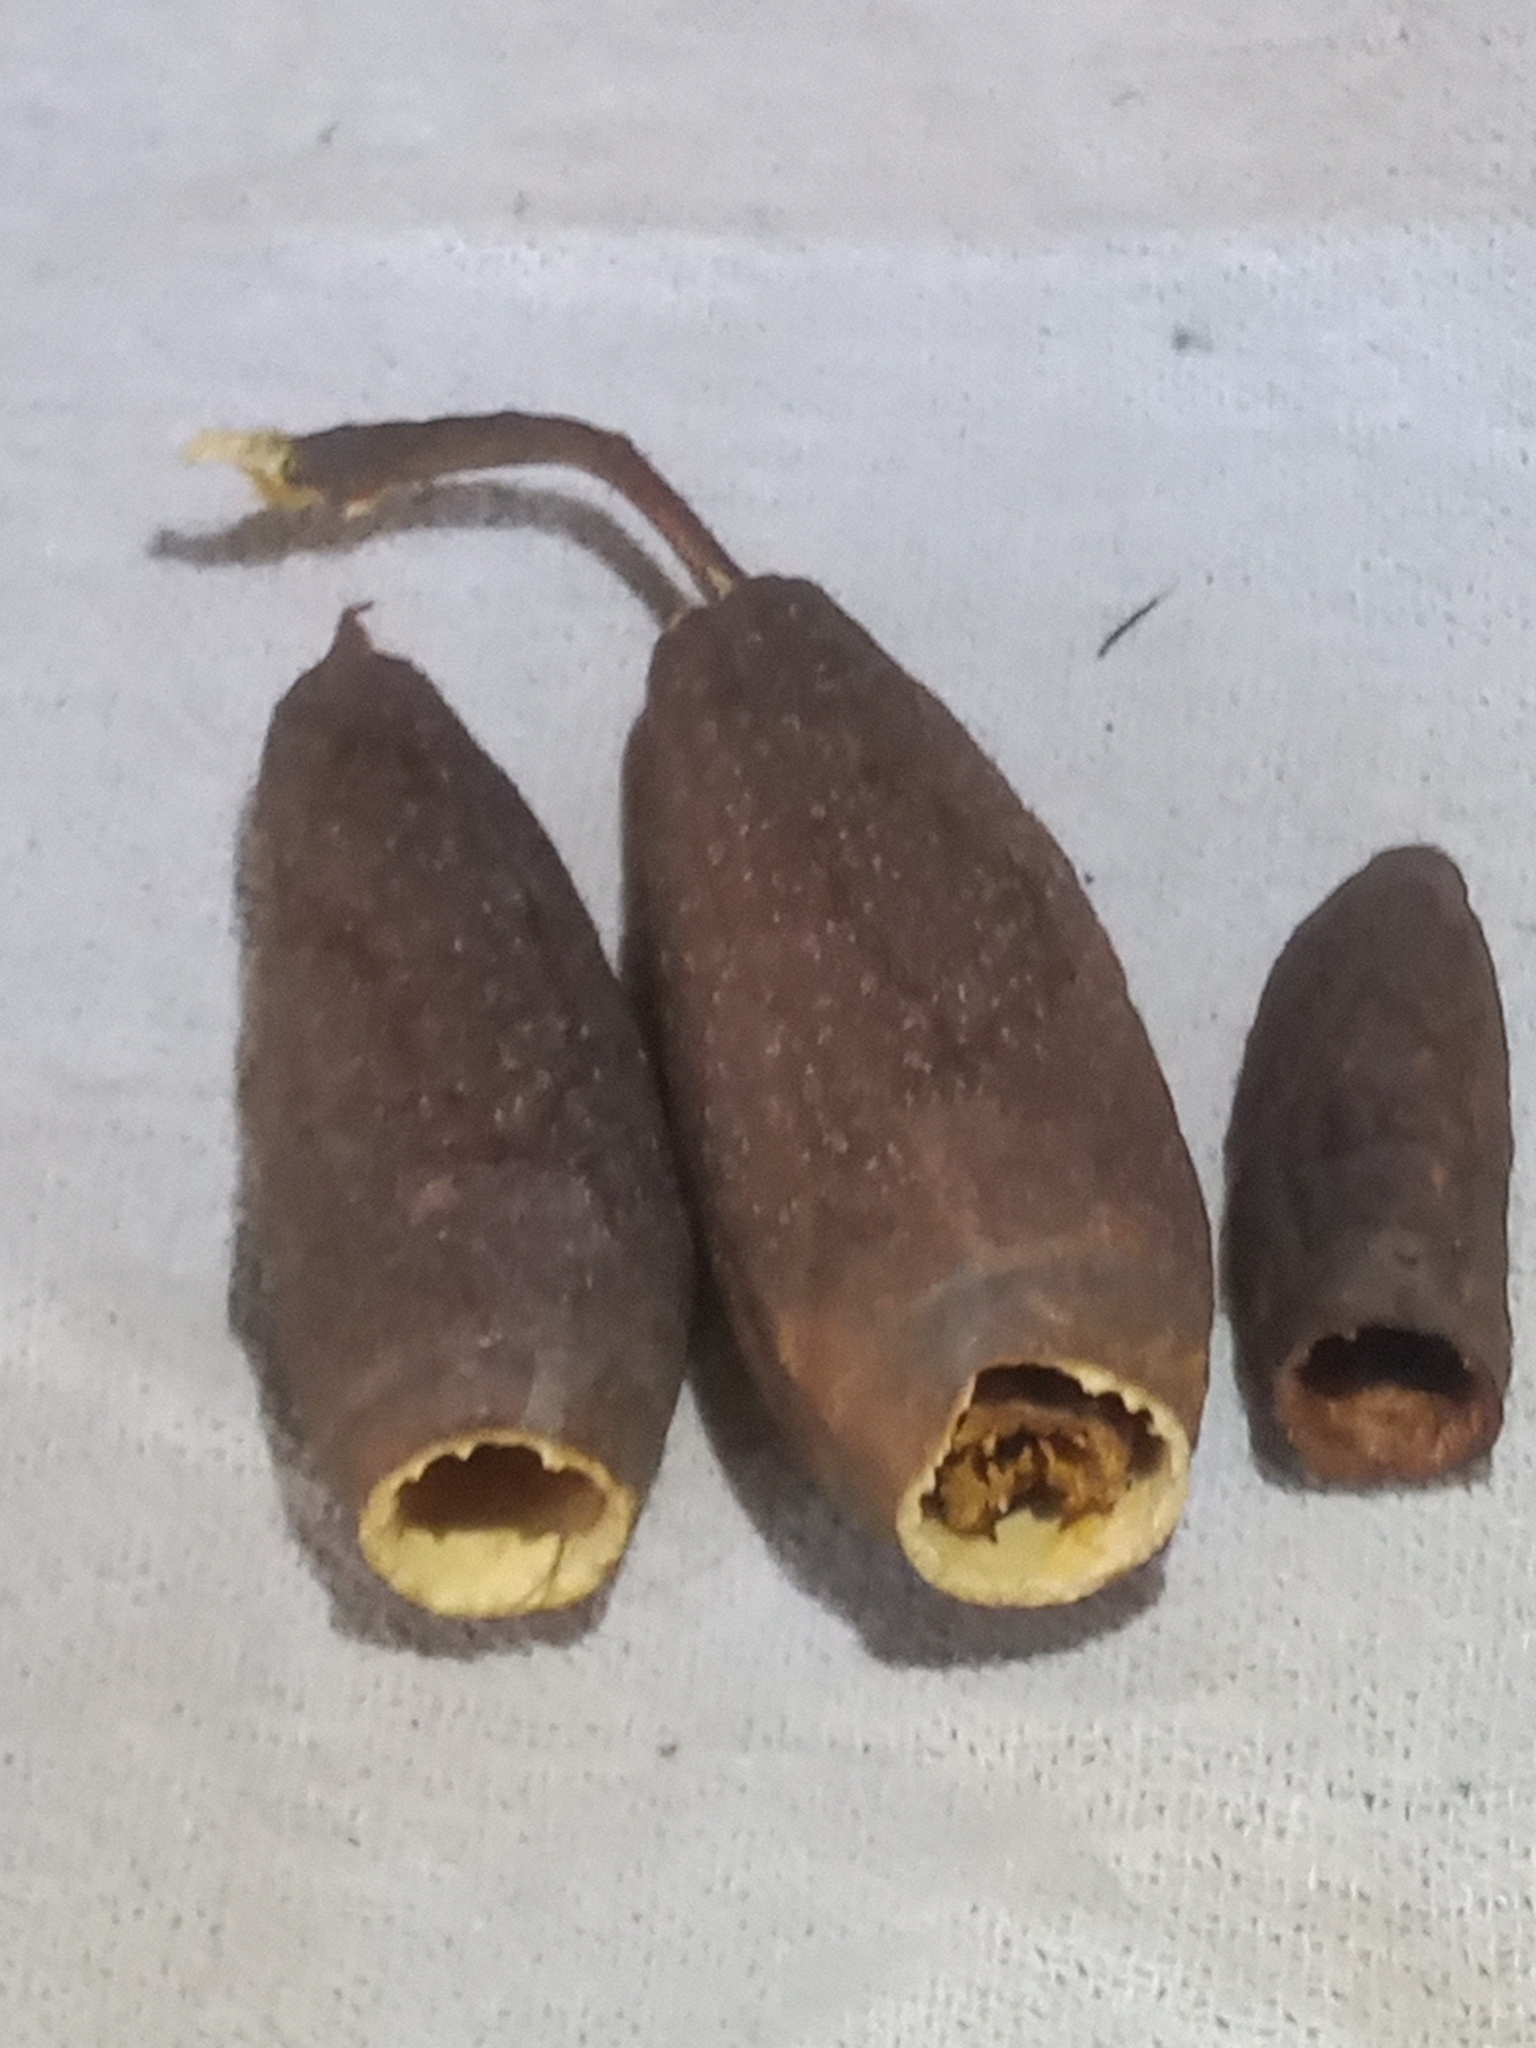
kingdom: Plantae
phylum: Tracheophyta
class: Magnoliopsida
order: Ericales
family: Lecythidaceae
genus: Cariniana
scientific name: Cariniana estrellensis
